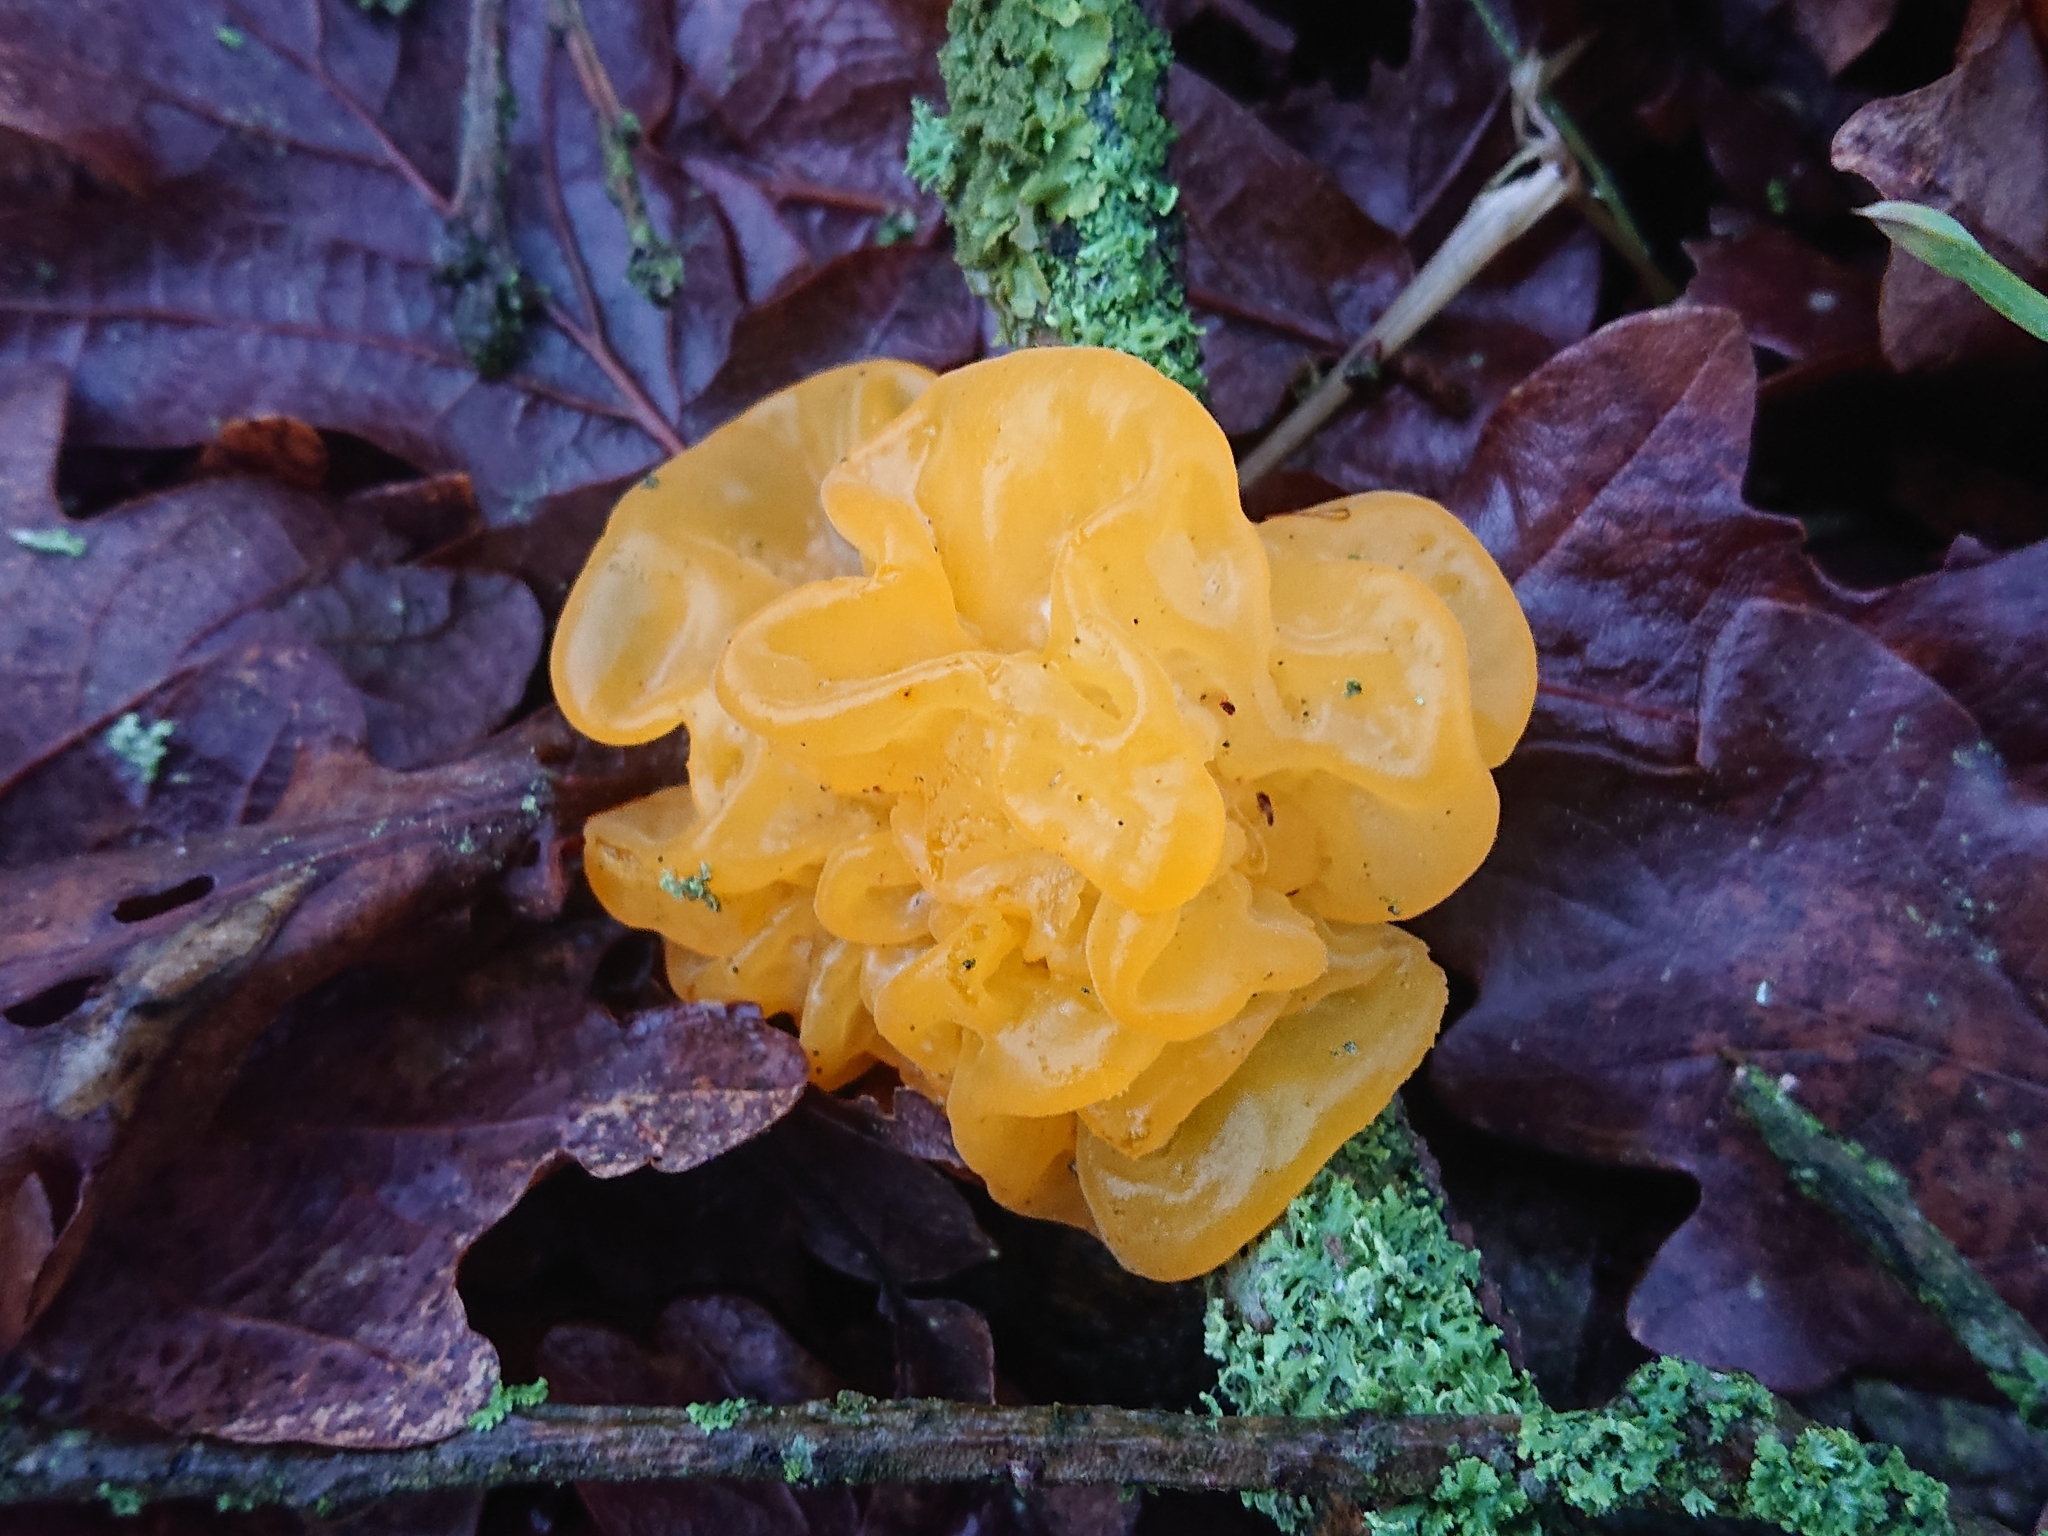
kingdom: Fungi
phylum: Basidiomycota
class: Tremellomycetes
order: Tremellales
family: Tremellaceae
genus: Tremella
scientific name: Tremella mesenterica
